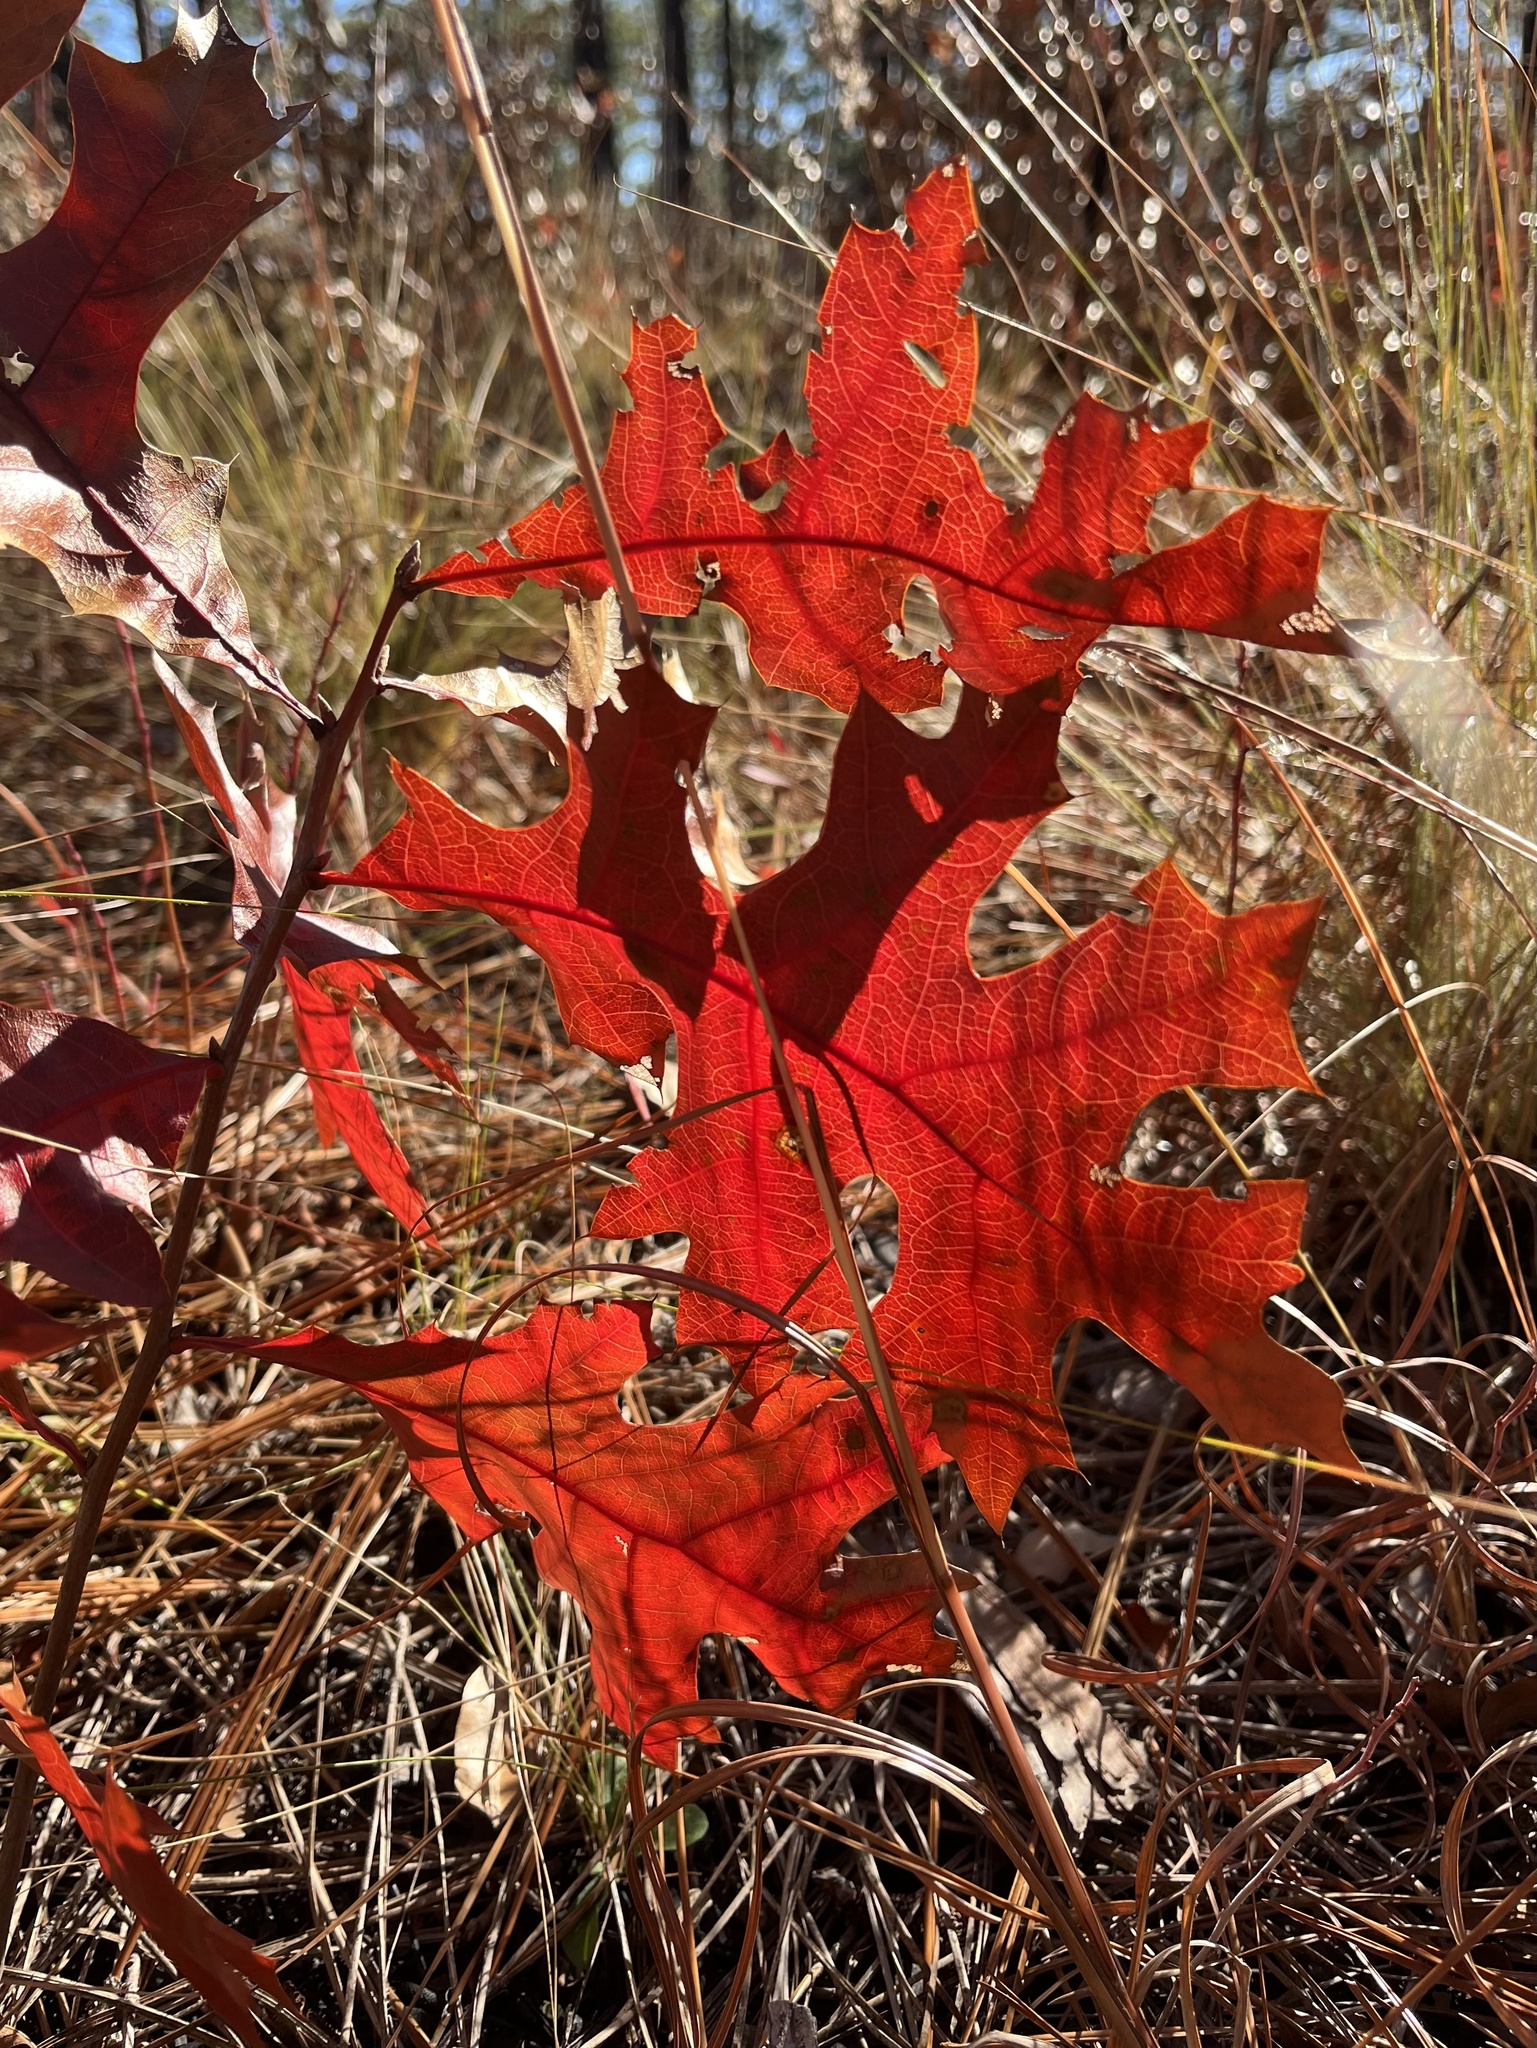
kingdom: Plantae
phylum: Tracheophyta
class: Magnoliopsida
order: Fagales
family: Fagaceae
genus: Quercus
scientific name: Quercus laevis
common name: Turkey oak
